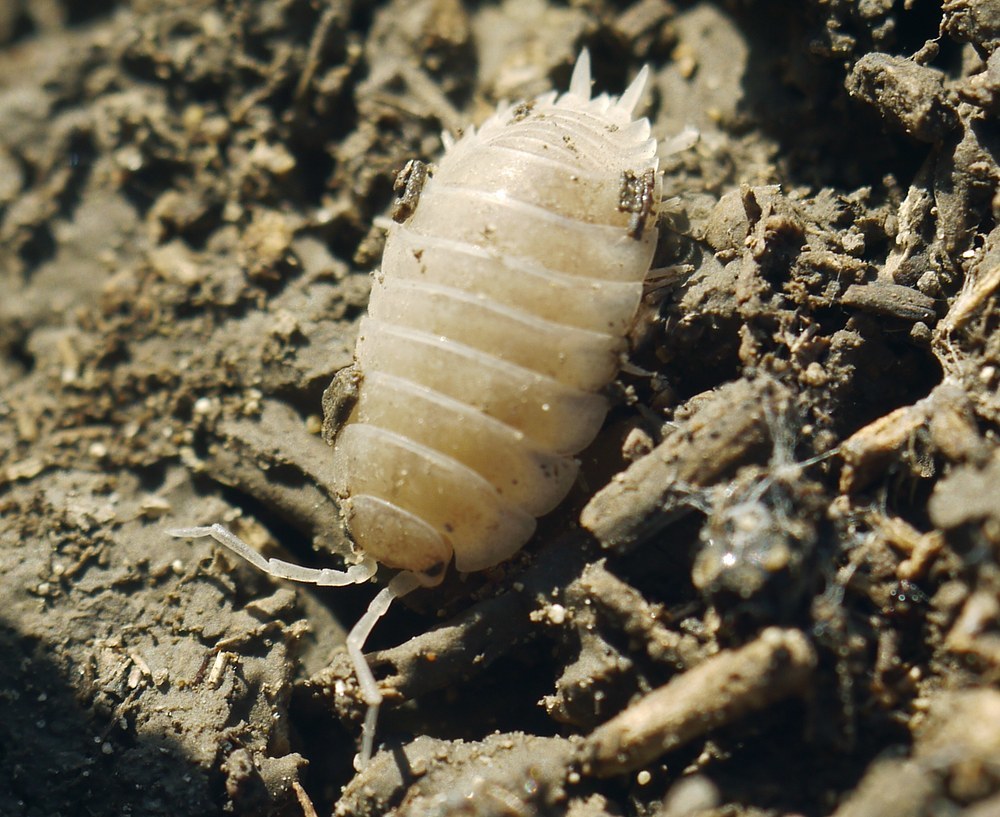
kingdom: Animalia
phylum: Arthropoda
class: Malacostraca
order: Isopoda
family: Porcellionidae
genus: Porcellio
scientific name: Porcellio laevis
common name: Swift woodlouse
